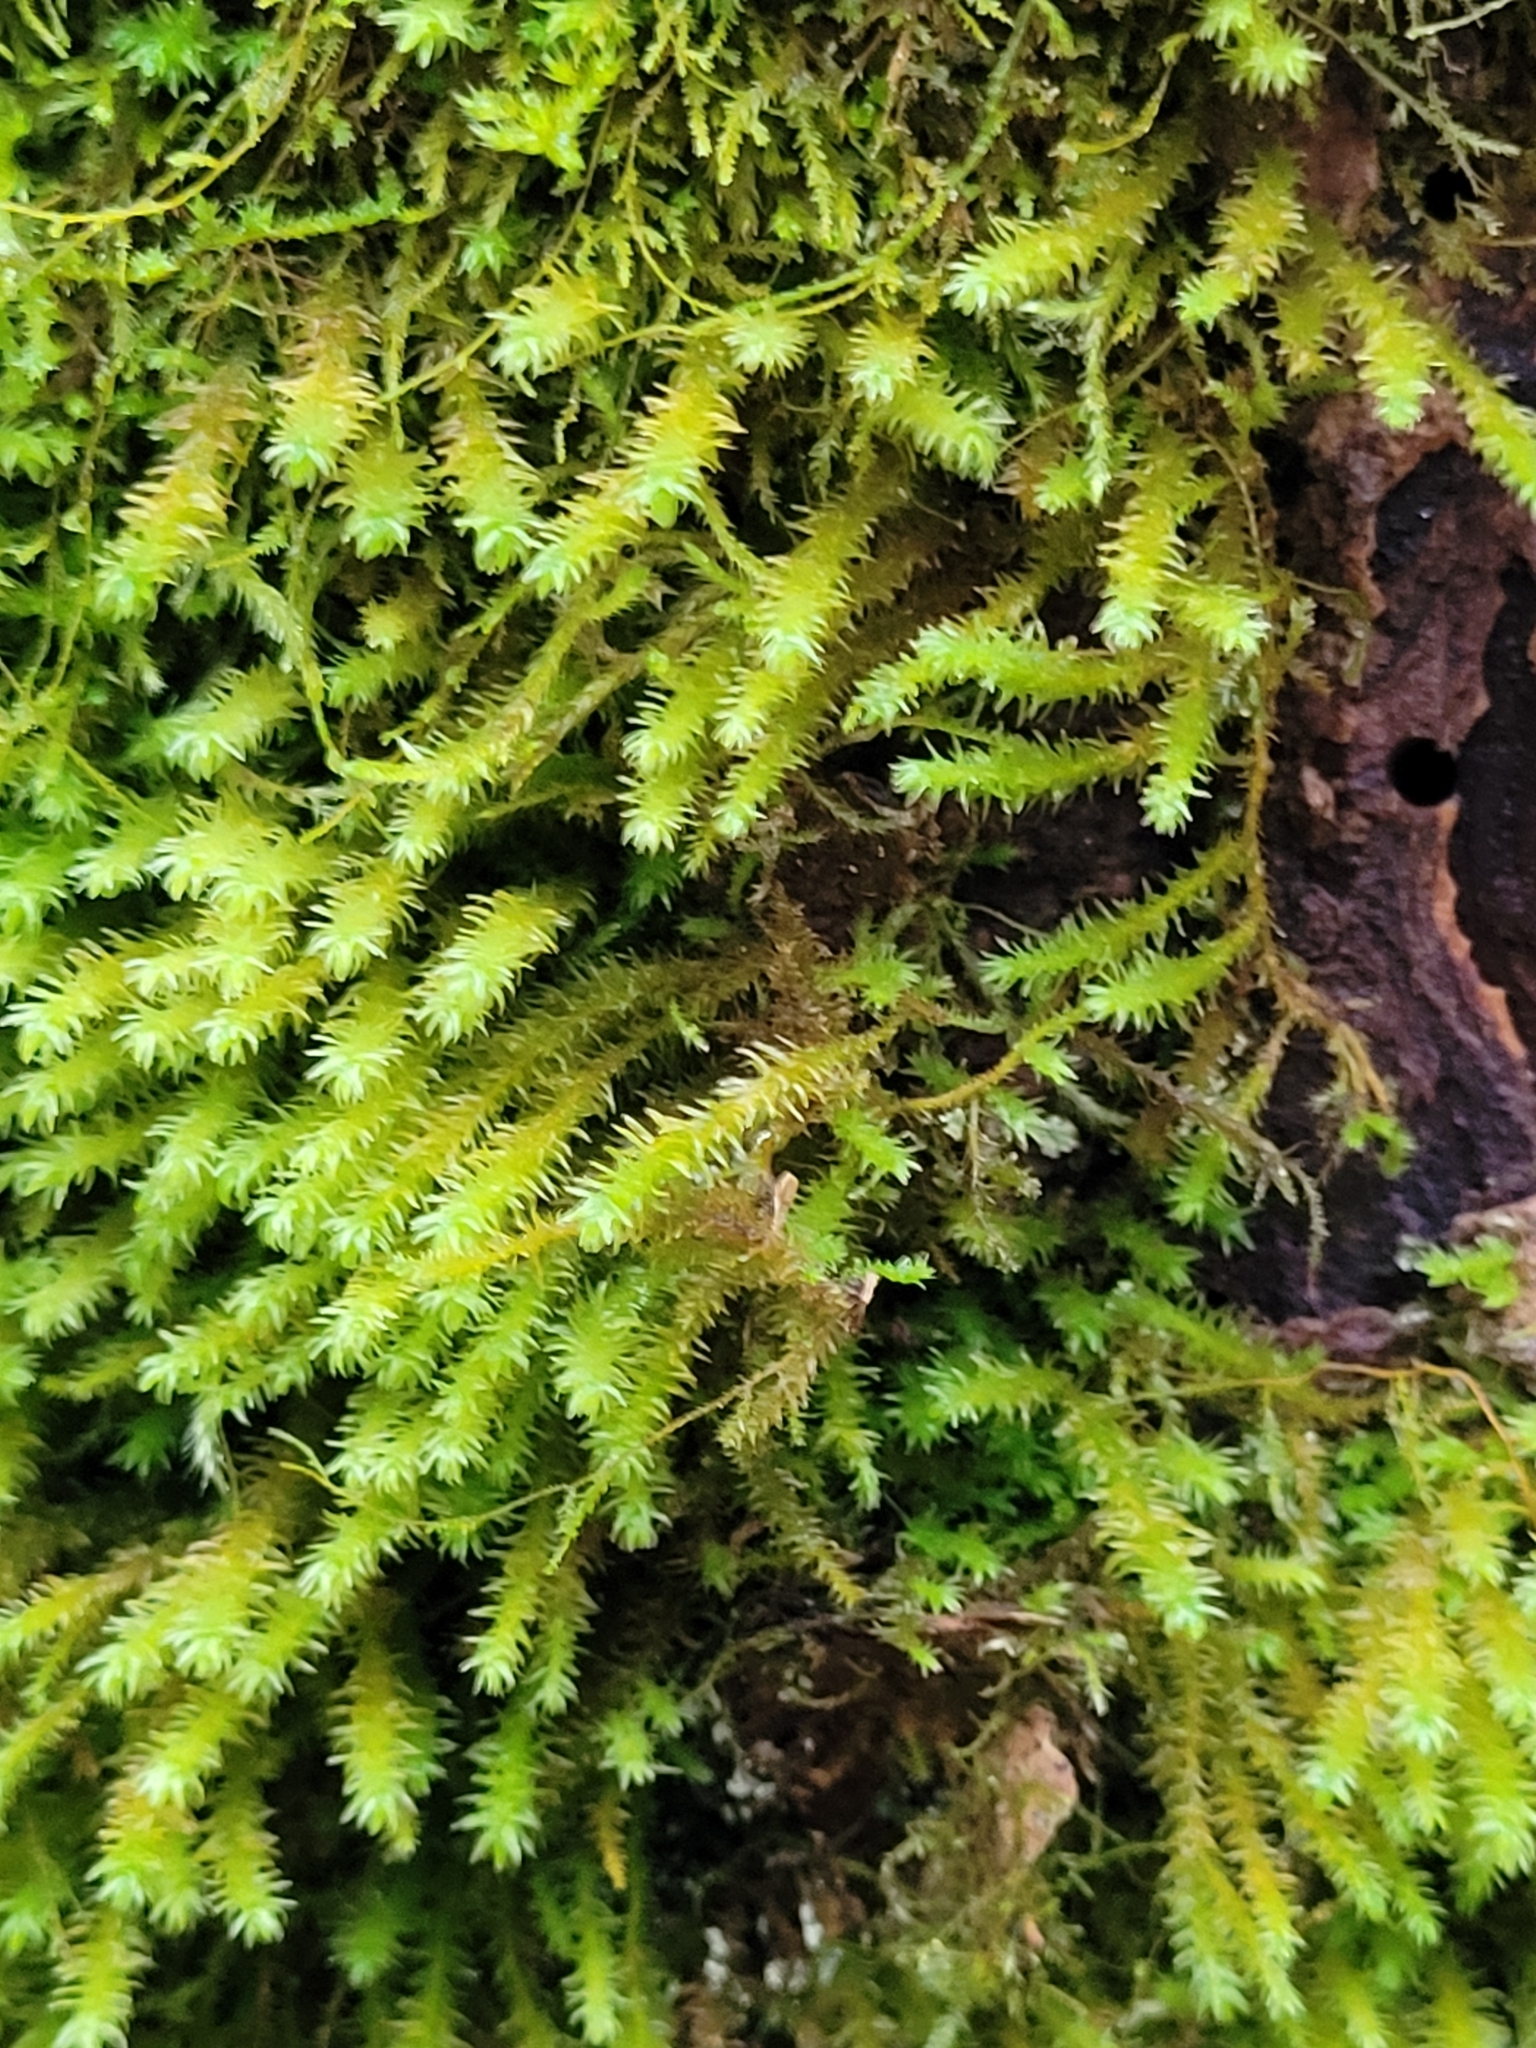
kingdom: Plantae
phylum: Bryophyta
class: Bryopsida
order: Hypnales
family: Anomodontaceae
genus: Anomodon
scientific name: Anomodon viticulosus
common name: Tall anomodon
